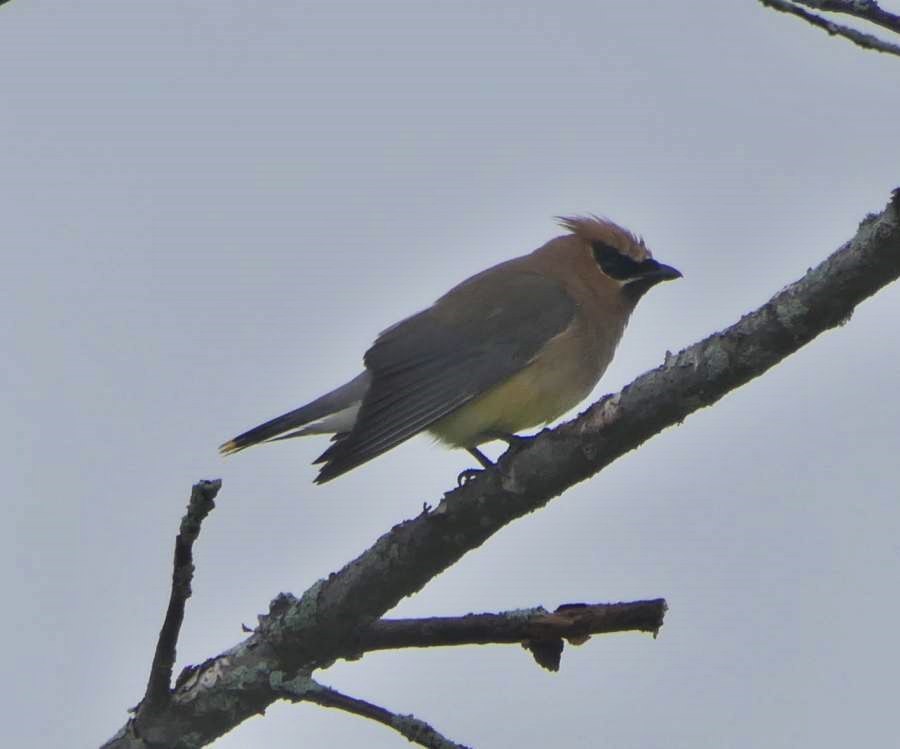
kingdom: Animalia
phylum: Chordata
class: Aves
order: Passeriformes
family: Bombycillidae
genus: Bombycilla
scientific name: Bombycilla cedrorum
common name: Cedar waxwing
